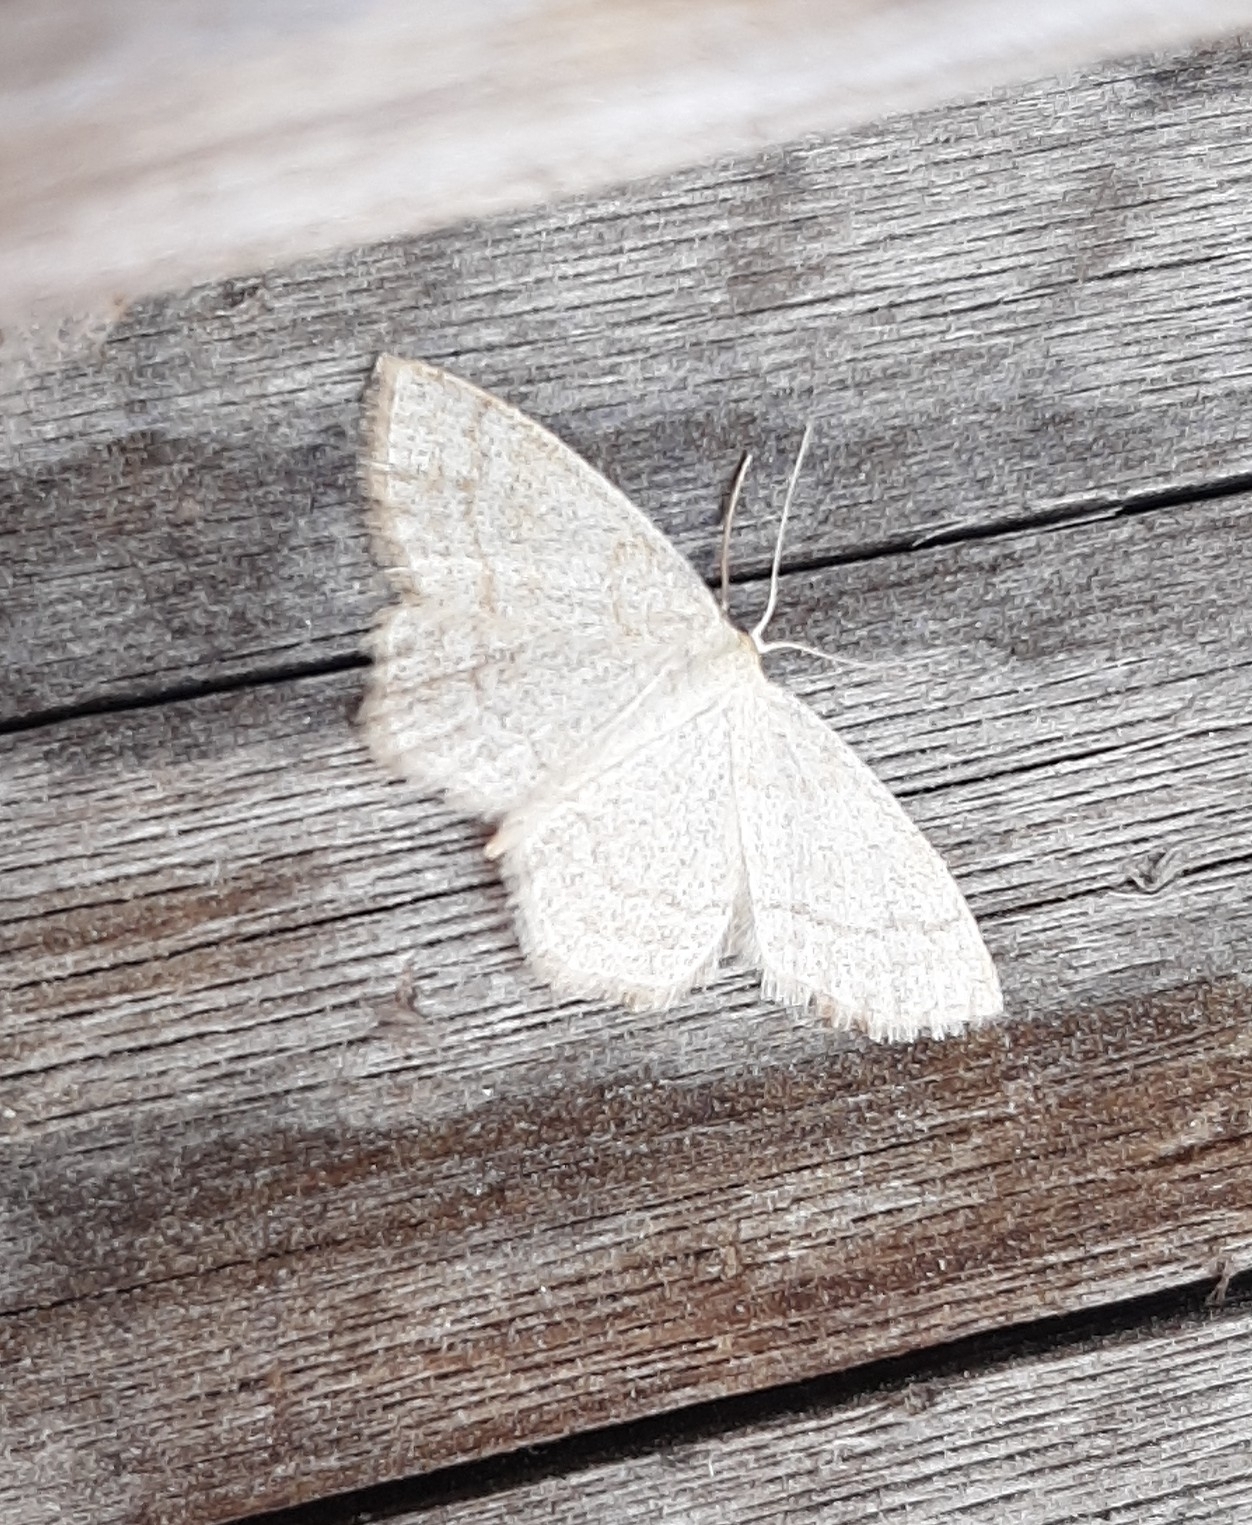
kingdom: Animalia
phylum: Arthropoda
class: Insecta
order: Lepidoptera
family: Geometridae
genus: Scopula
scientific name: Scopula ternata
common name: Smoky wave
